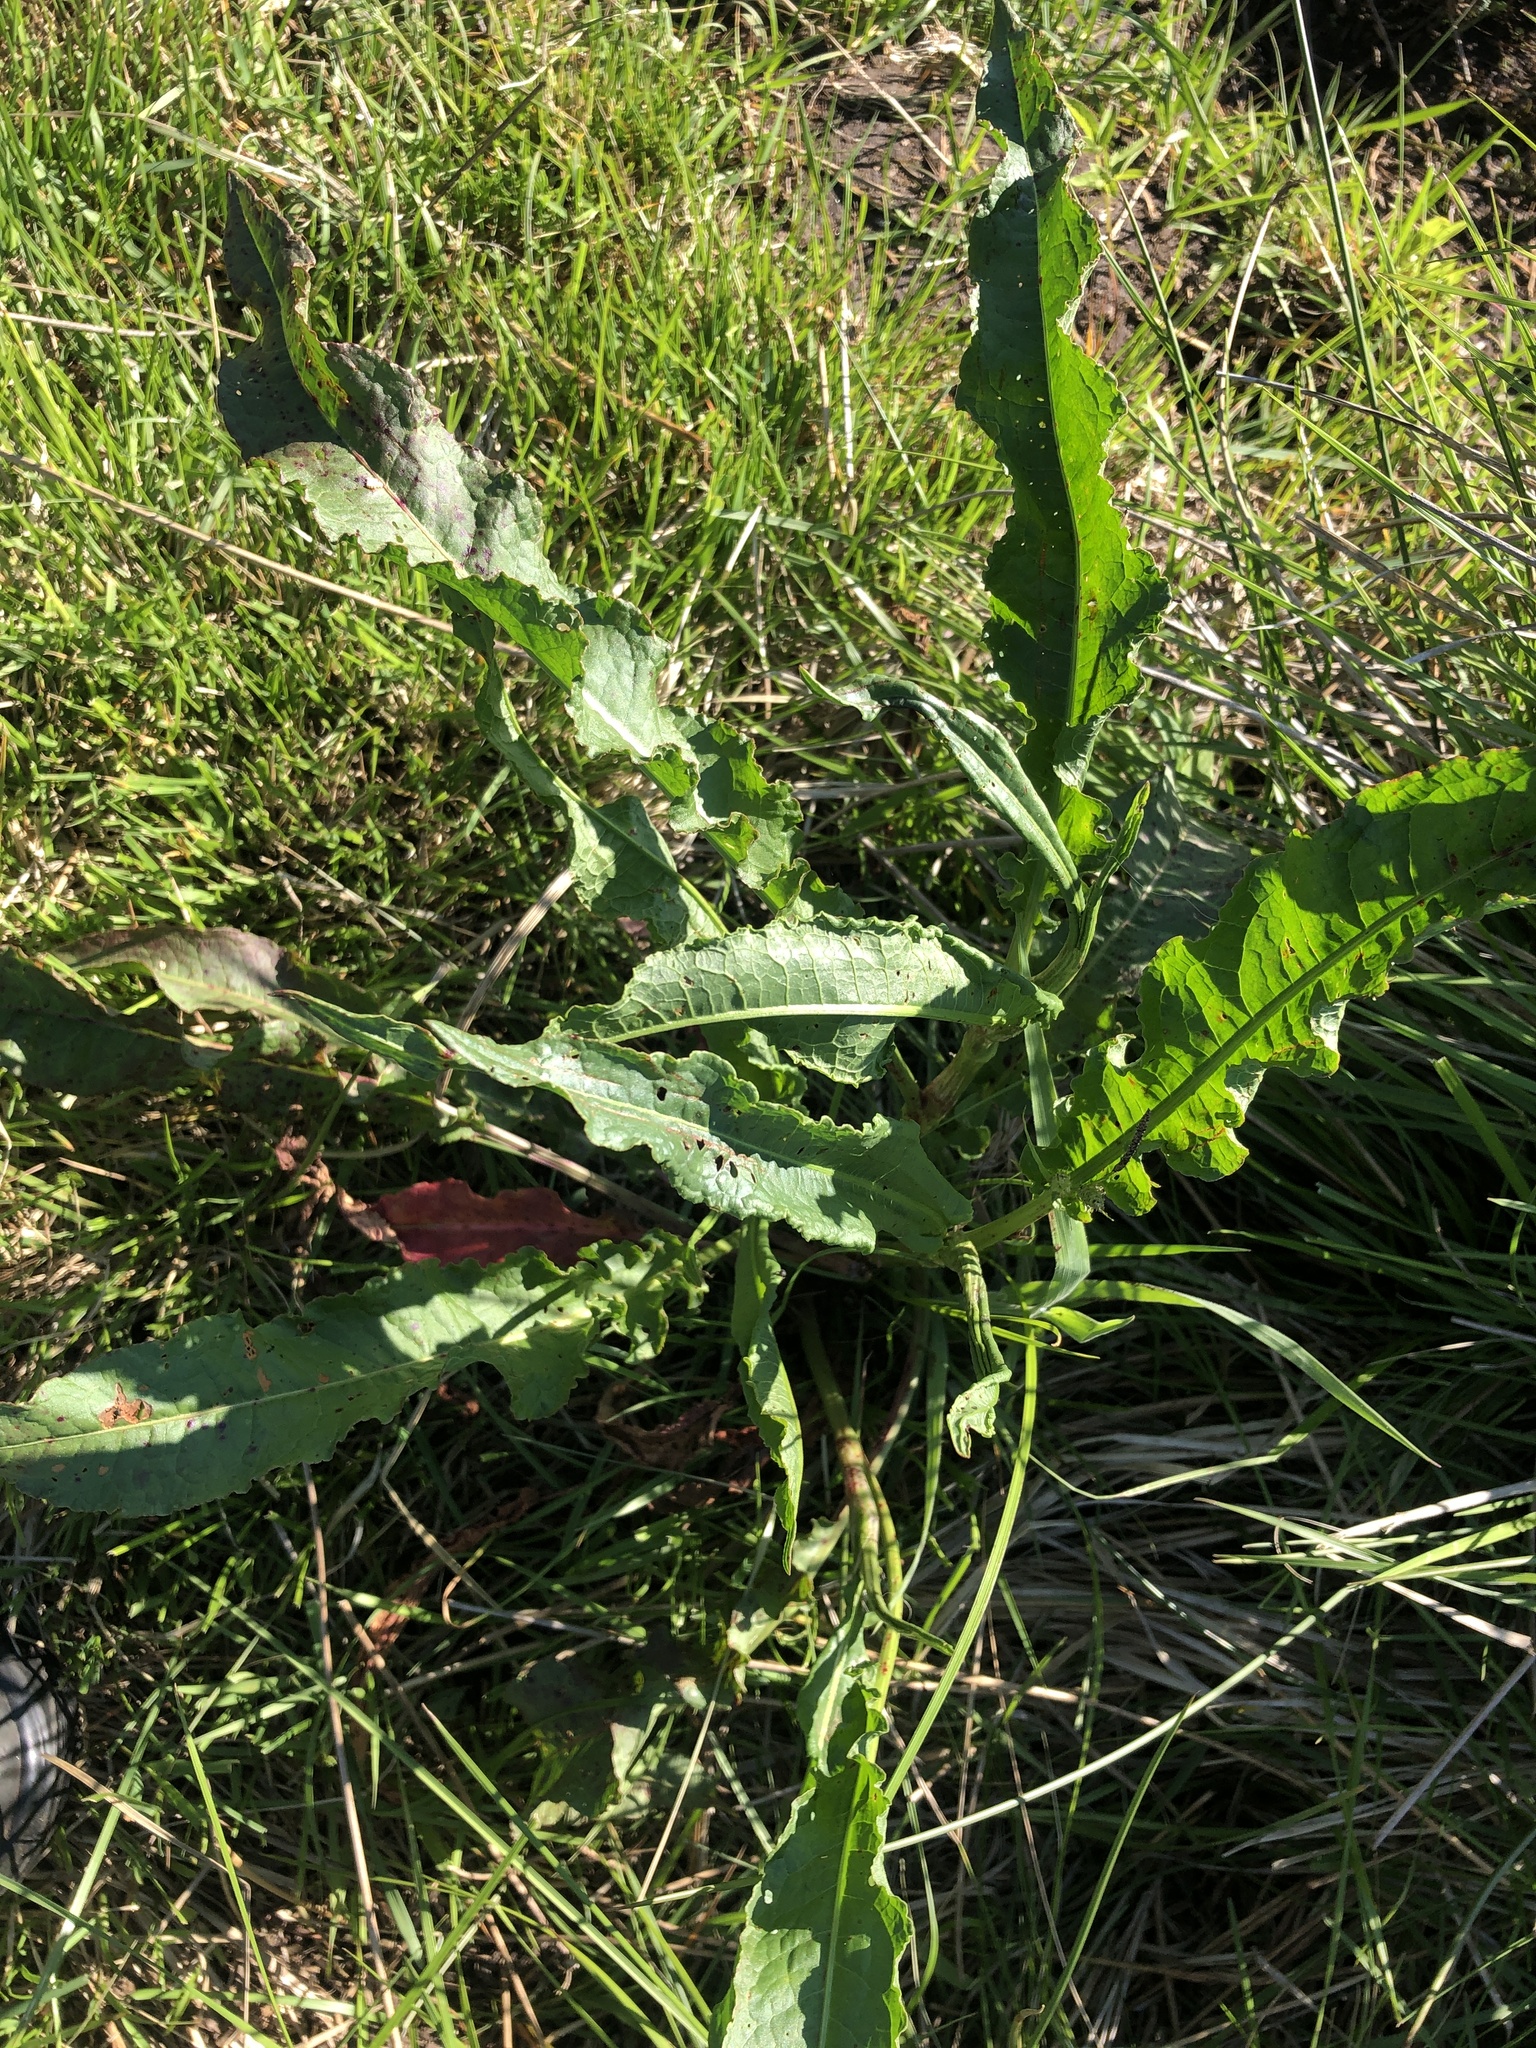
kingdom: Plantae
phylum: Tracheophyta
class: Magnoliopsida
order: Caryophyllales
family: Polygonaceae
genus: Rumex
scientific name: Rumex crispus
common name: Curled dock
